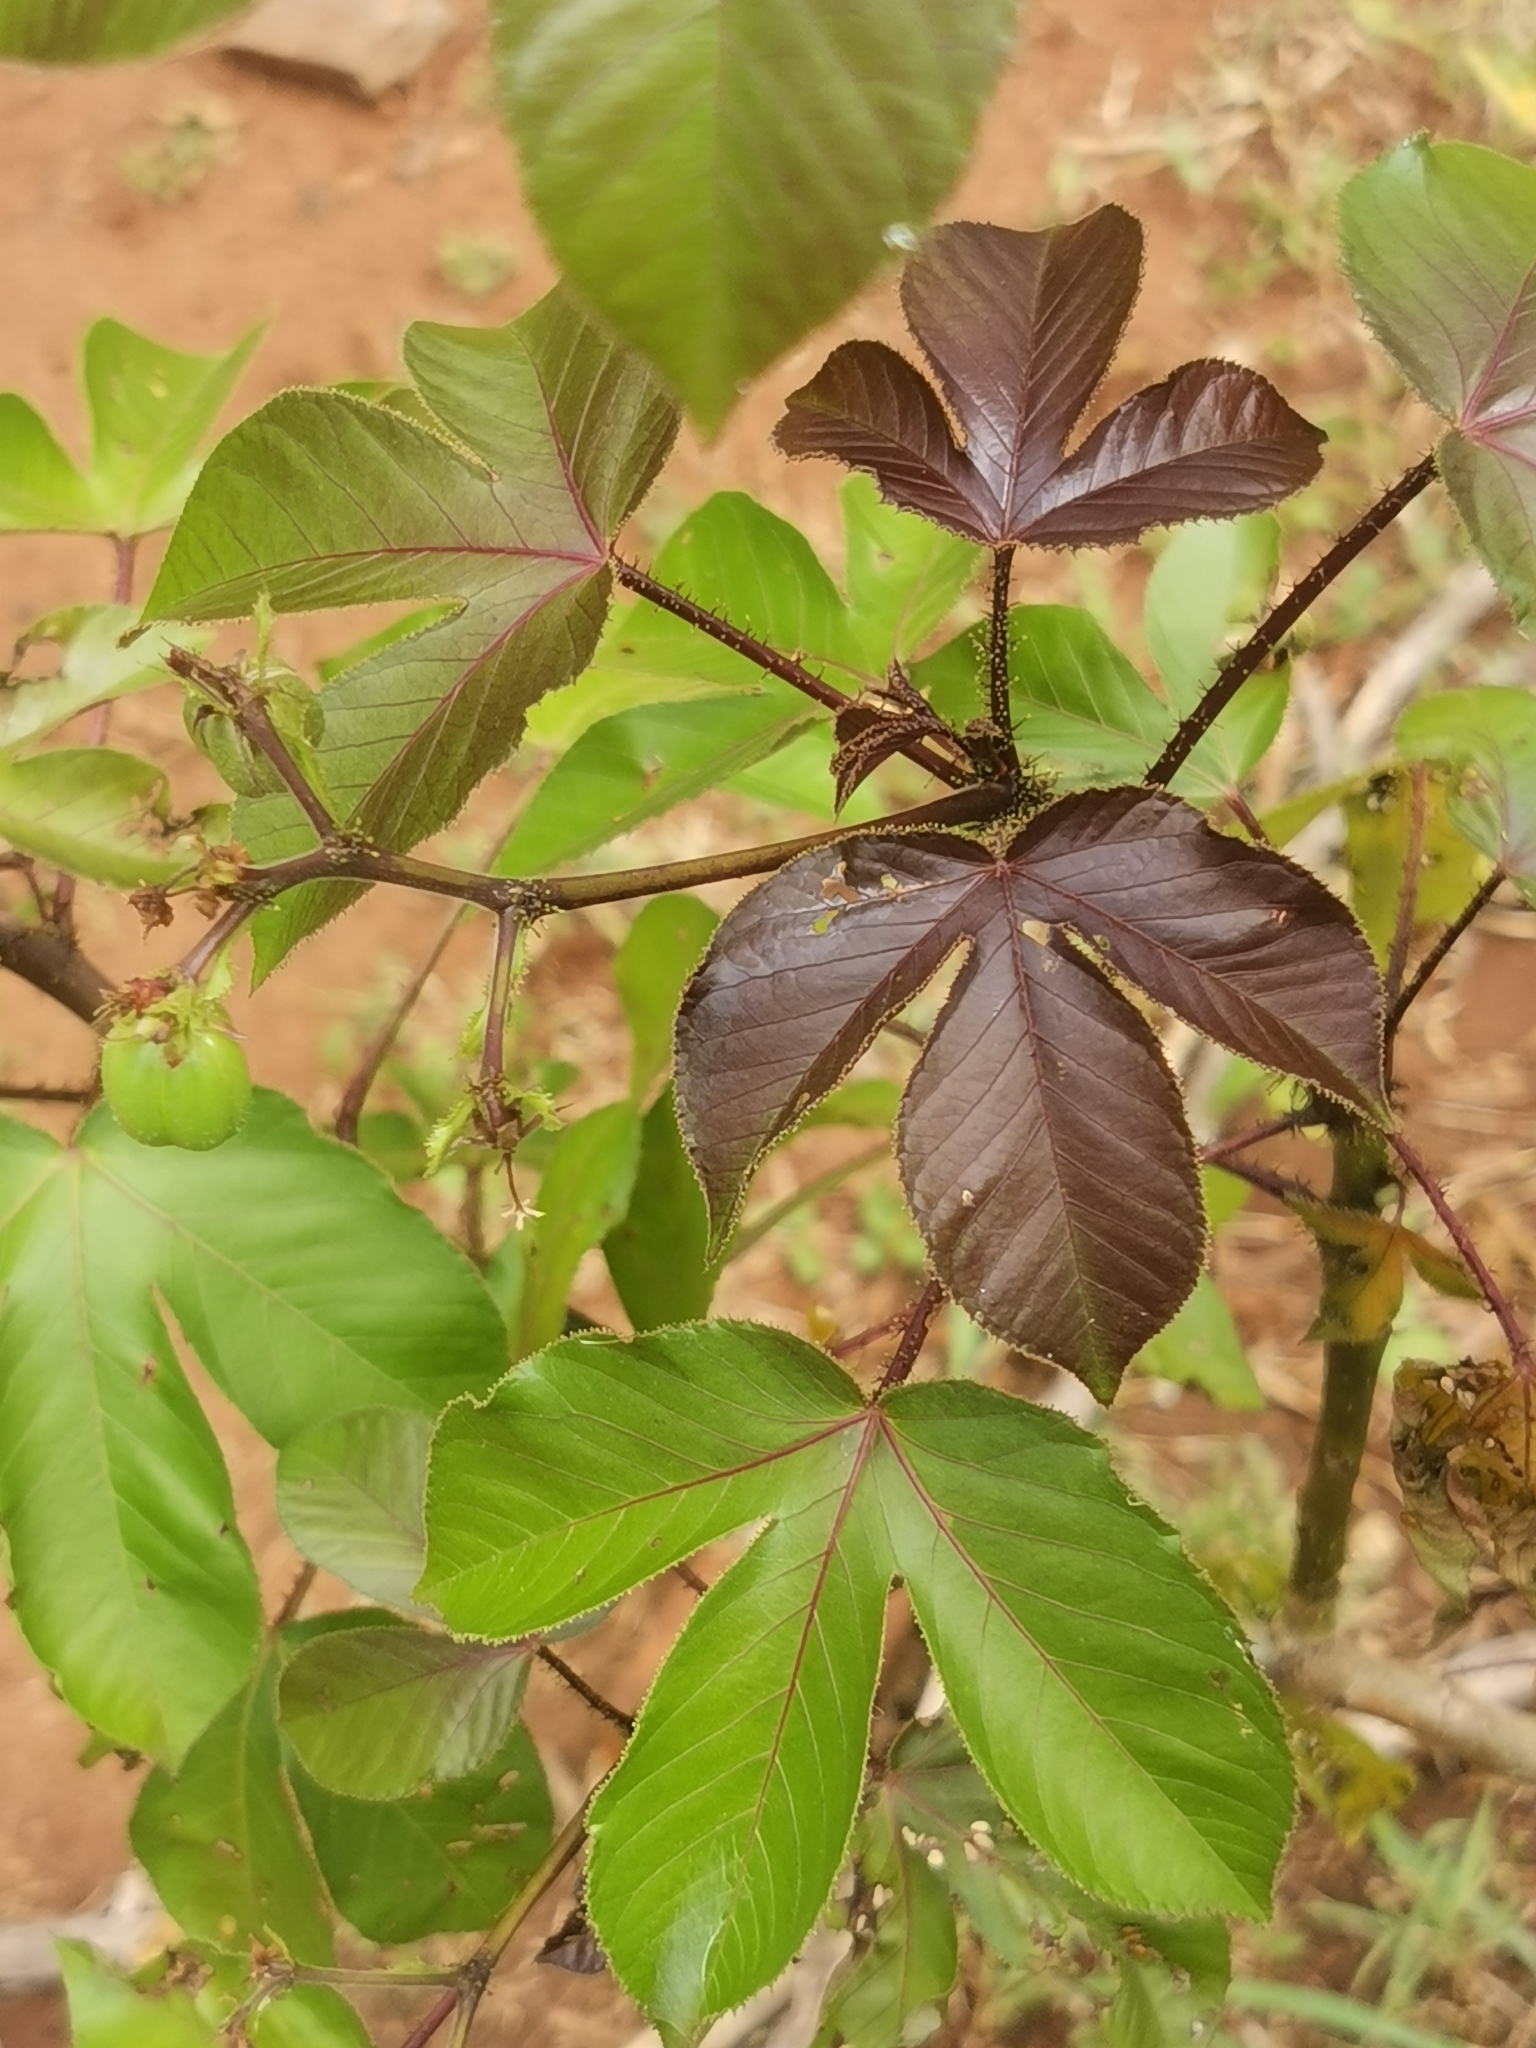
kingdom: Plantae
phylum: Tracheophyta
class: Magnoliopsida
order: Malpighiales
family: Euphorbiaceae
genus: Jatropha
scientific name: Jatropha gossypiifolia
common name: Bellyache bush
